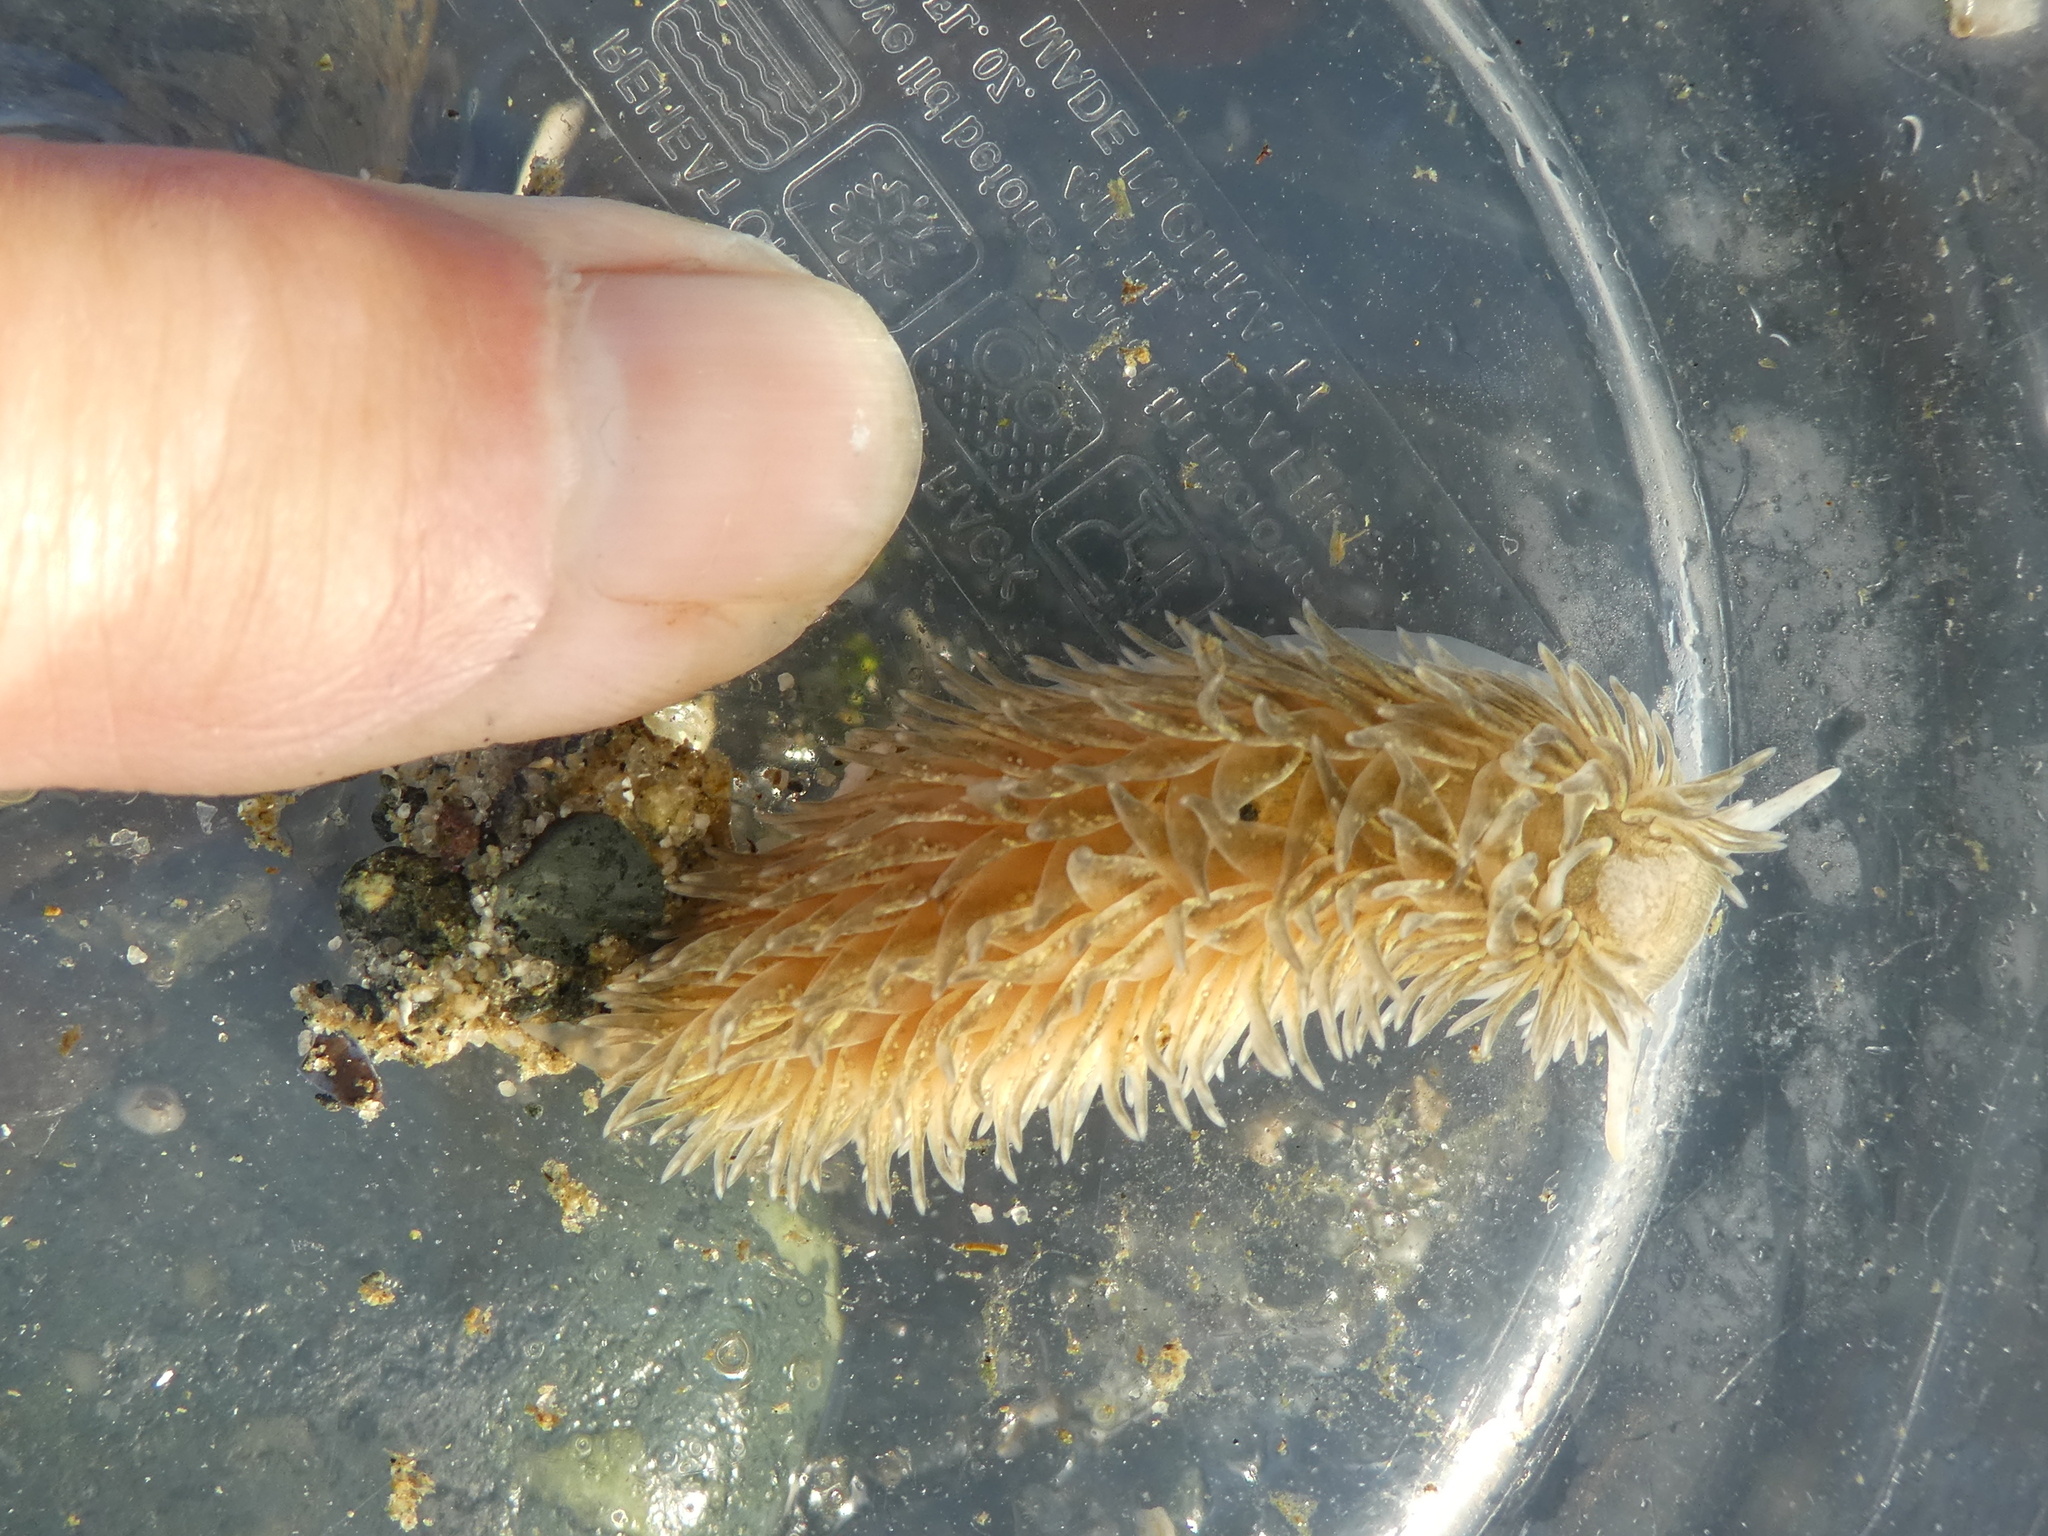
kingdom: Animalia
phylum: Mollusca
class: Gastropoda
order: Nudibranchia
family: Aeolidiidae
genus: Aeolidia
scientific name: Aeolidia loui
